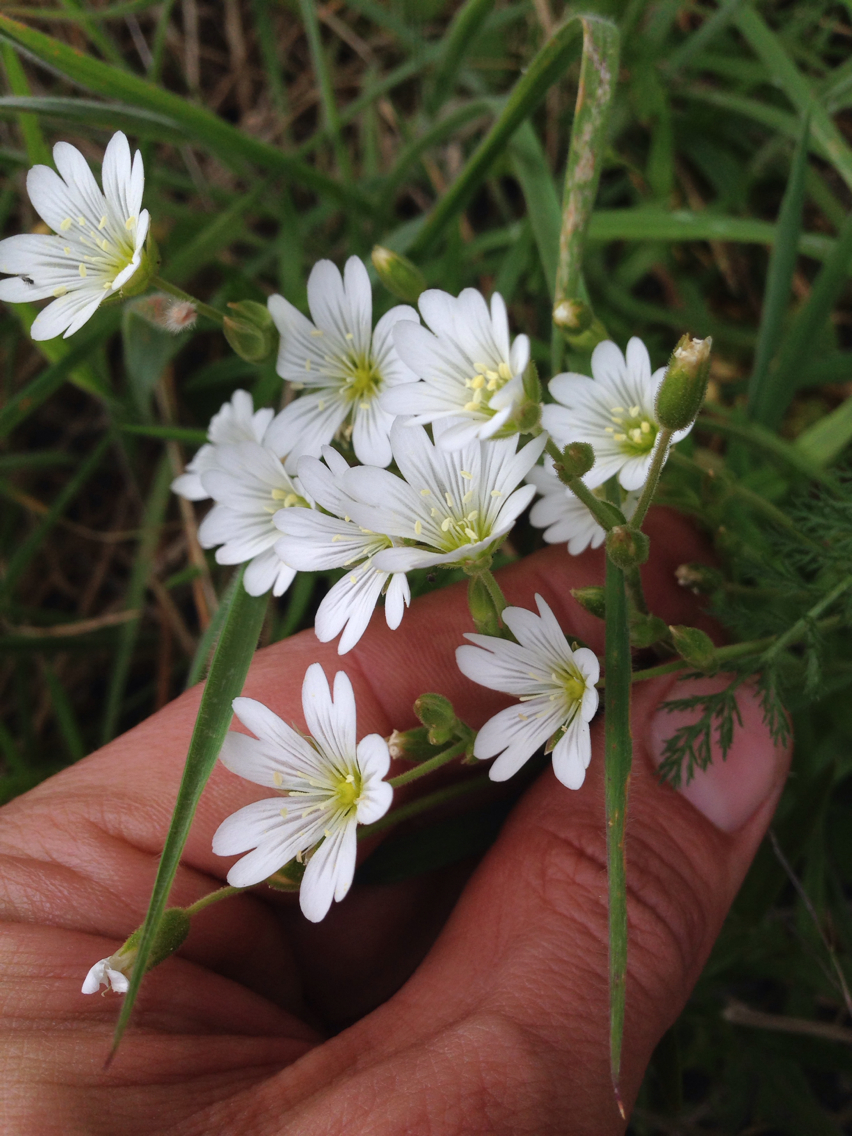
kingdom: Plantae
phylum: Tracheophyta
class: Magnoliopsida
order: Caryophyllales
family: Caryophyllaceae
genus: Cerastium
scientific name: Cerastium arvense
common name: Field mouse-ear
